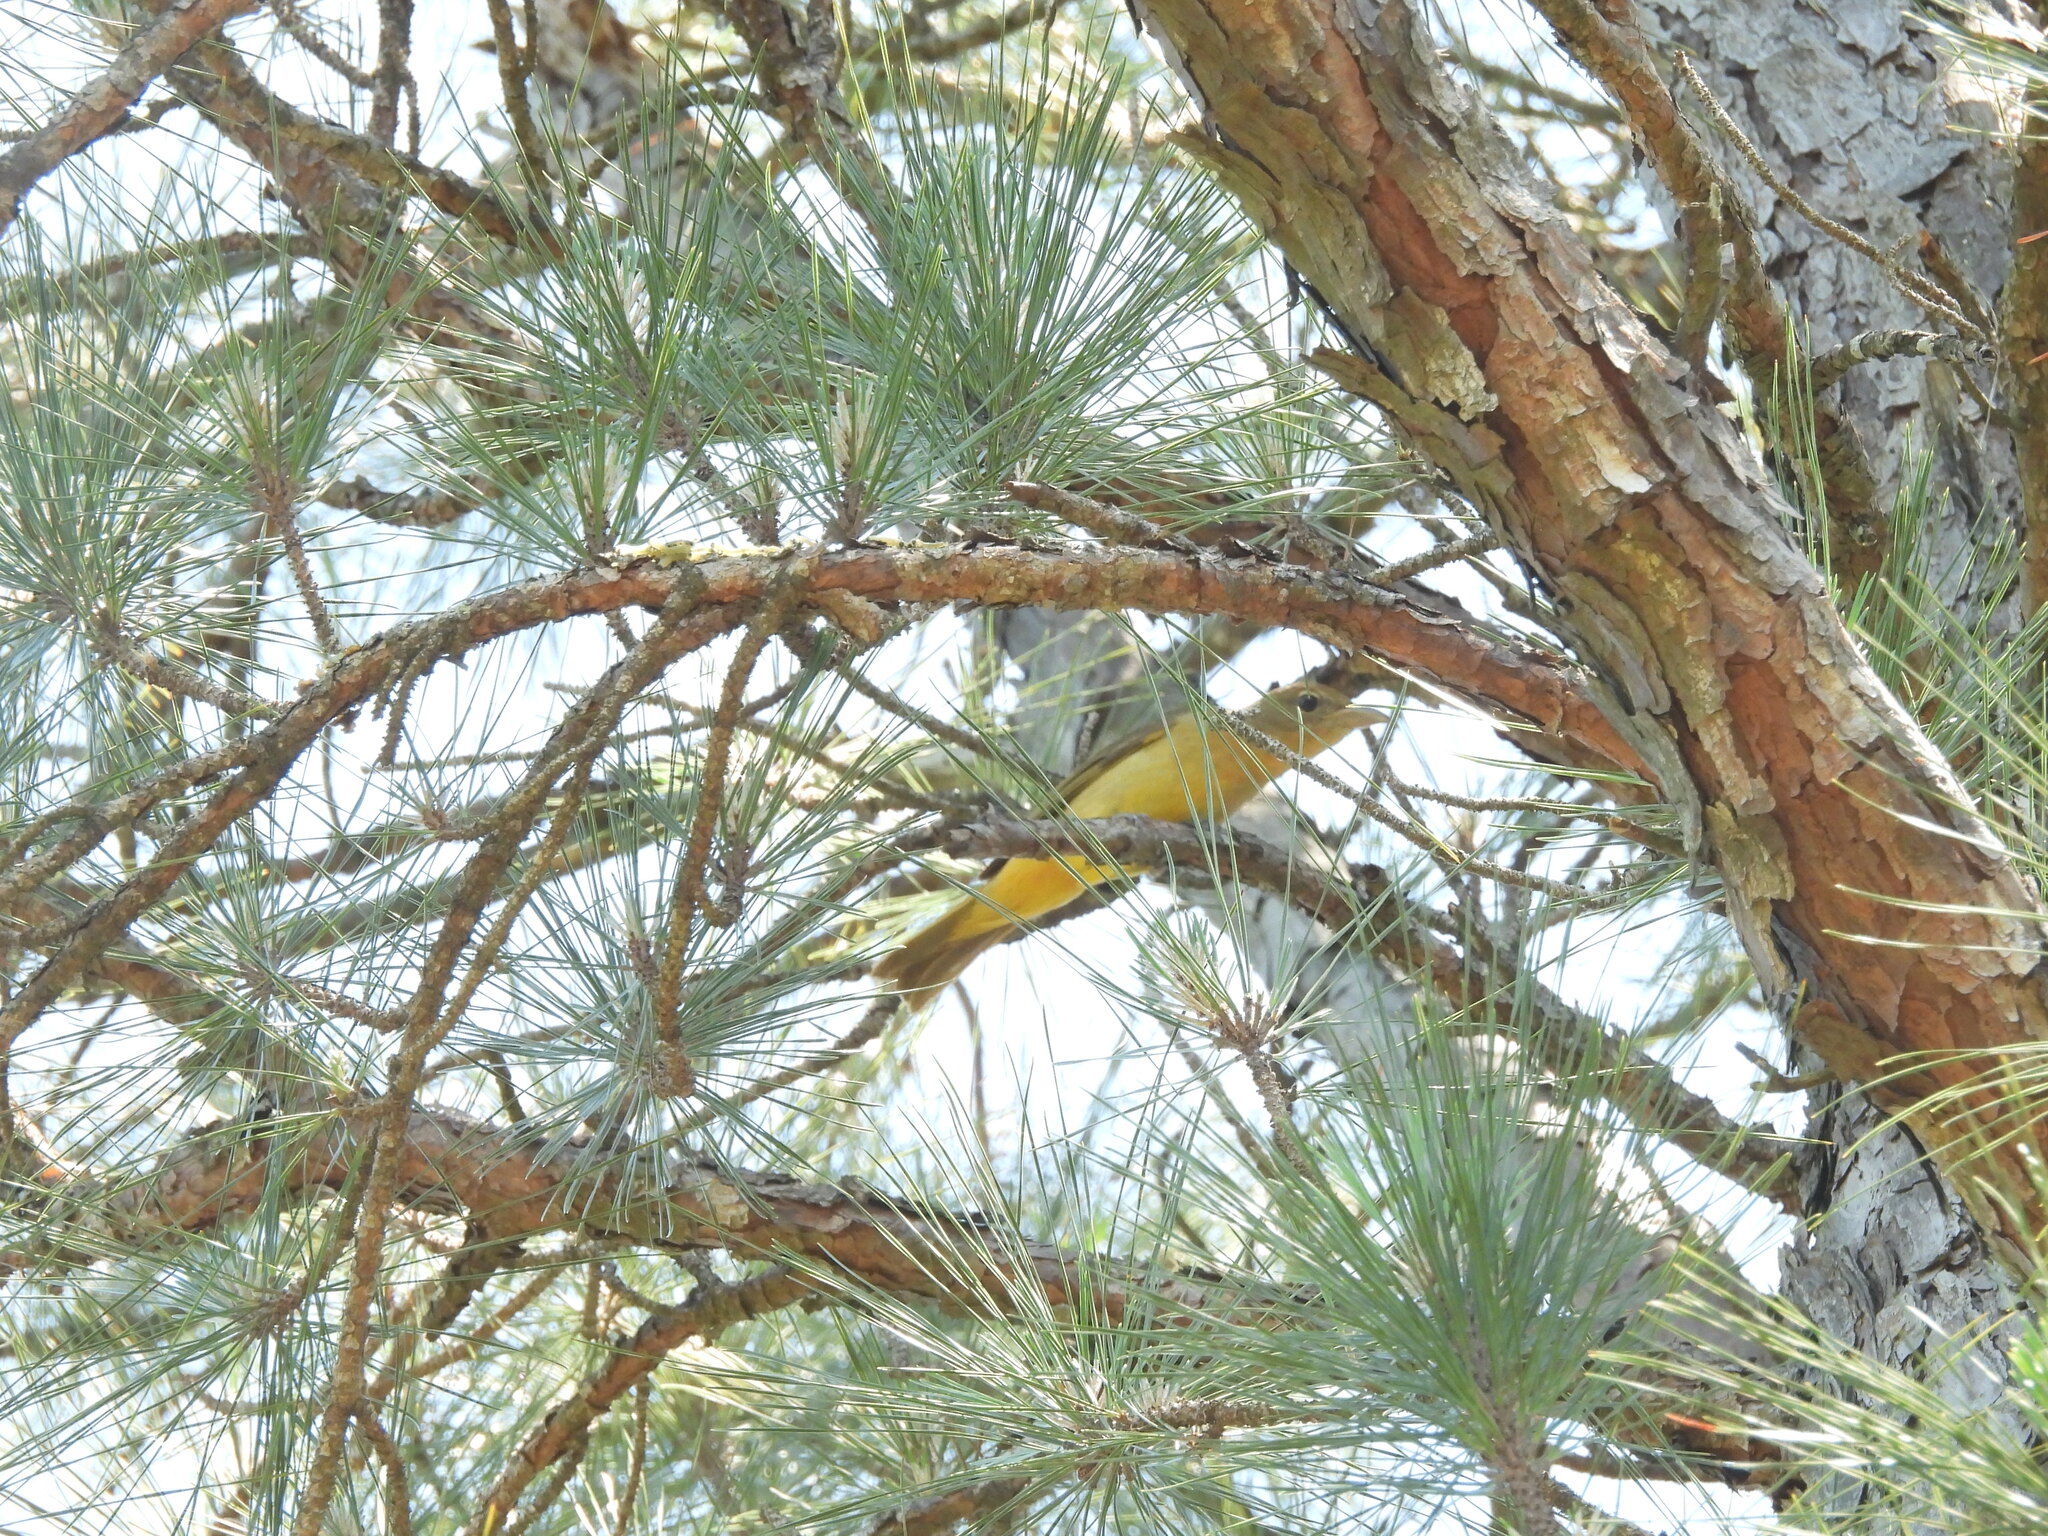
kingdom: Animalia
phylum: Chordata
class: Aves
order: Passeriformes
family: Cardinalidae
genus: Piranga
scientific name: Piranga rubra
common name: Summer tanager
